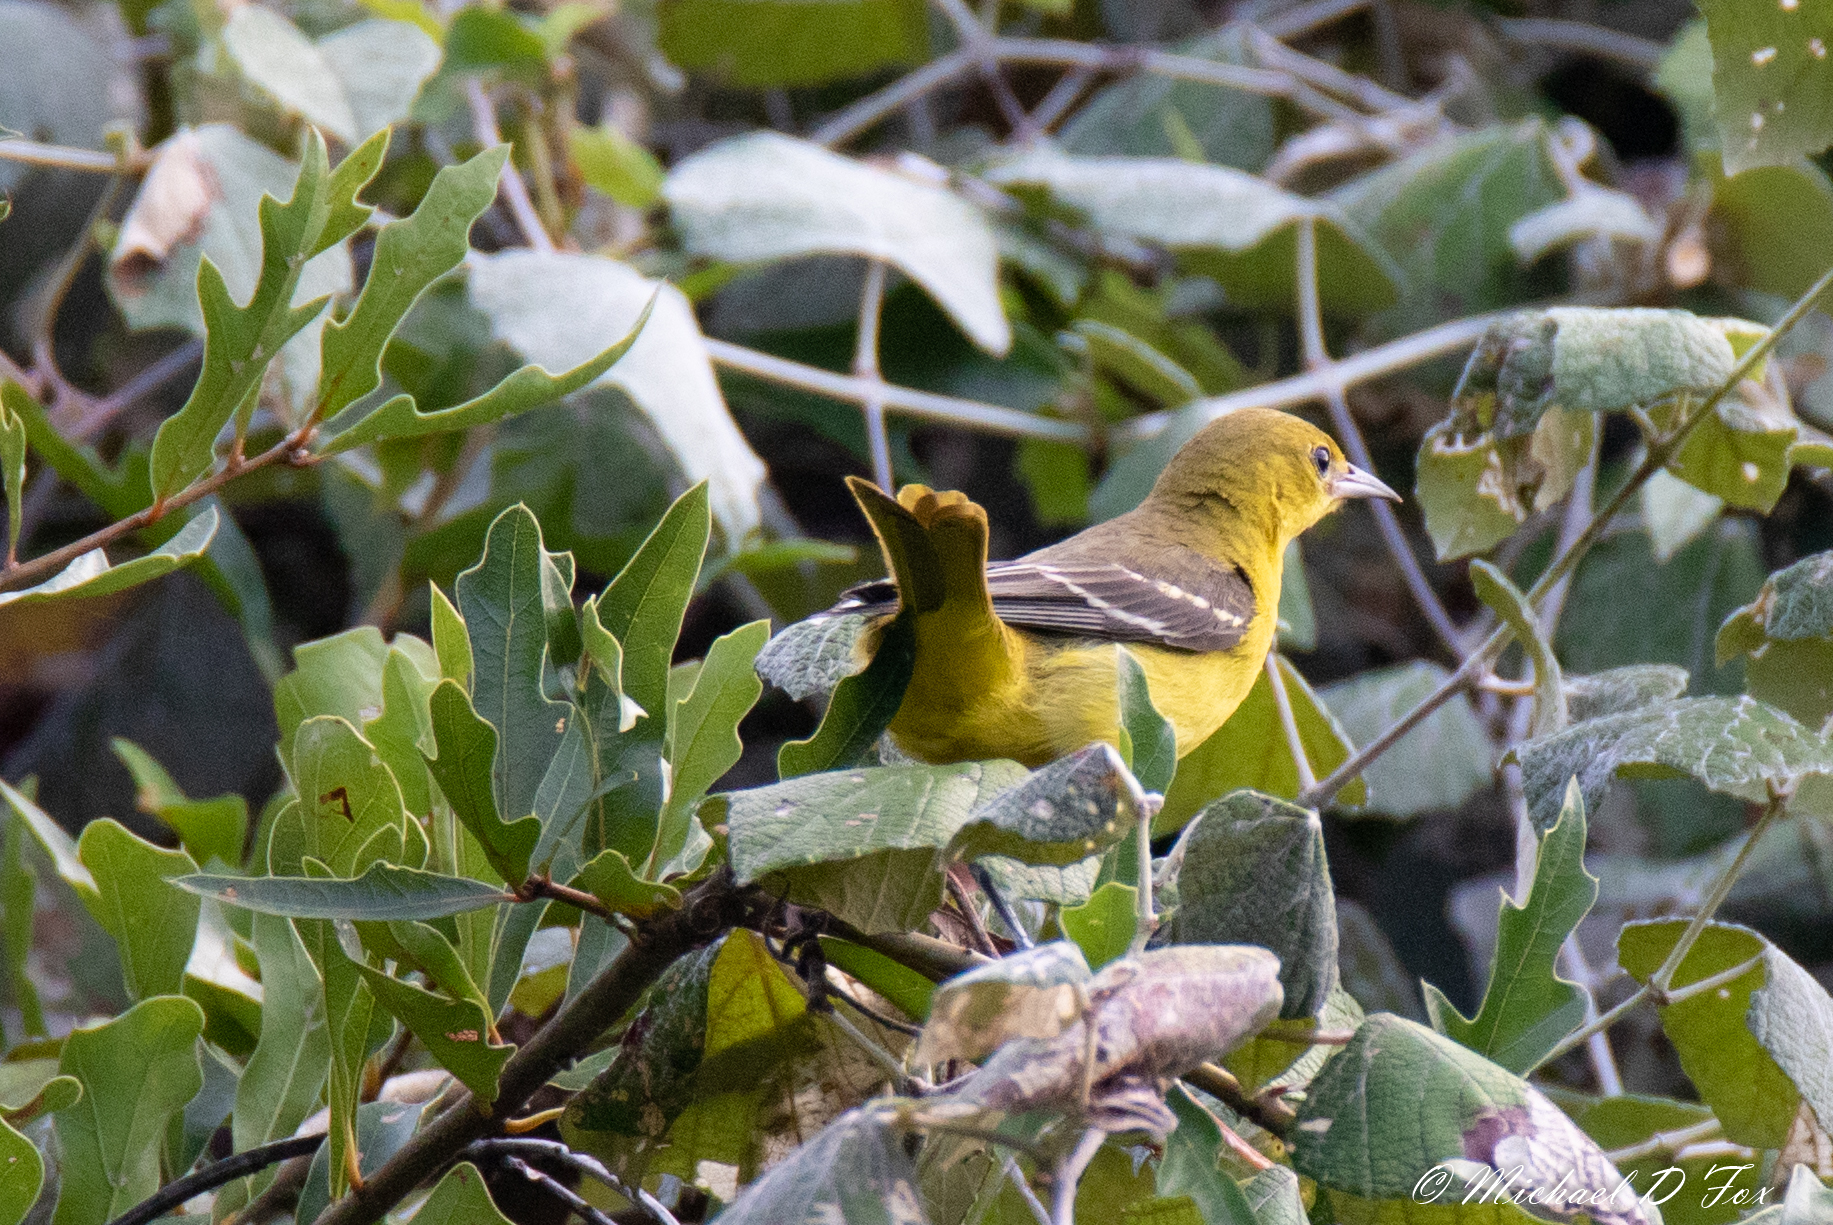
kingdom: Animalia
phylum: Chordata
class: Aves
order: Passeriformes
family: Icteridae
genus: Icterus
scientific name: Icterus spurius
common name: Orchard oriole
